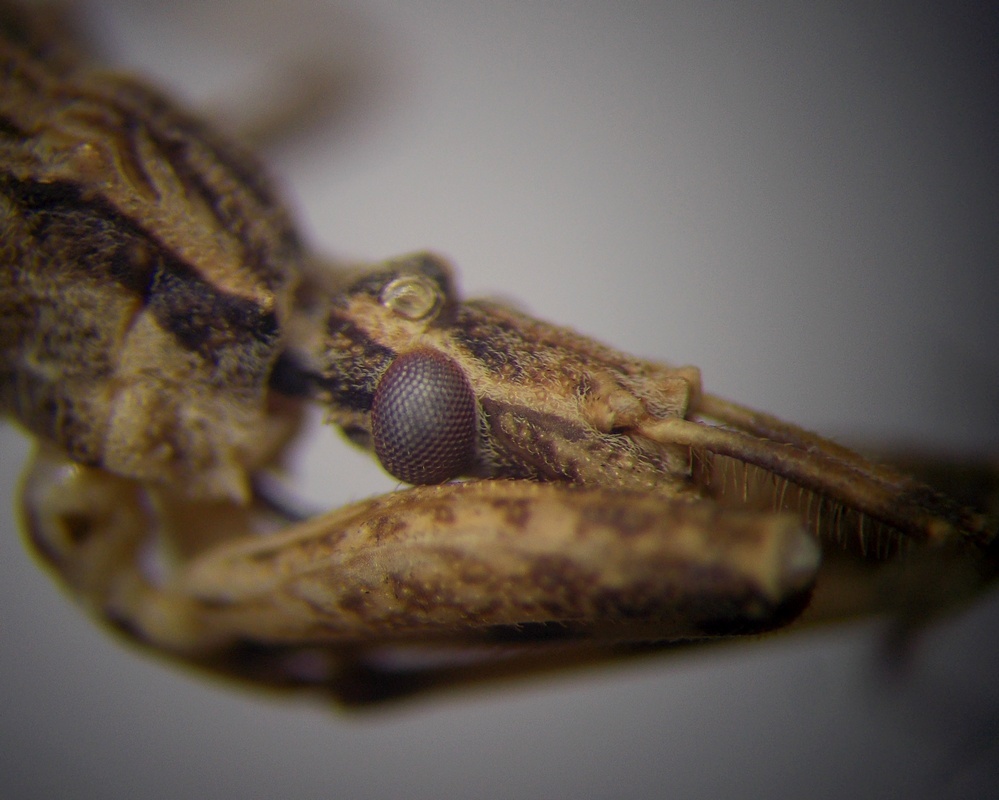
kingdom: Animalia
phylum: Arthropoda
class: Insecta
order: Hemiptera
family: Reduviidae
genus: Oncocephalus
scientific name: Oncocephalus plumicornis
